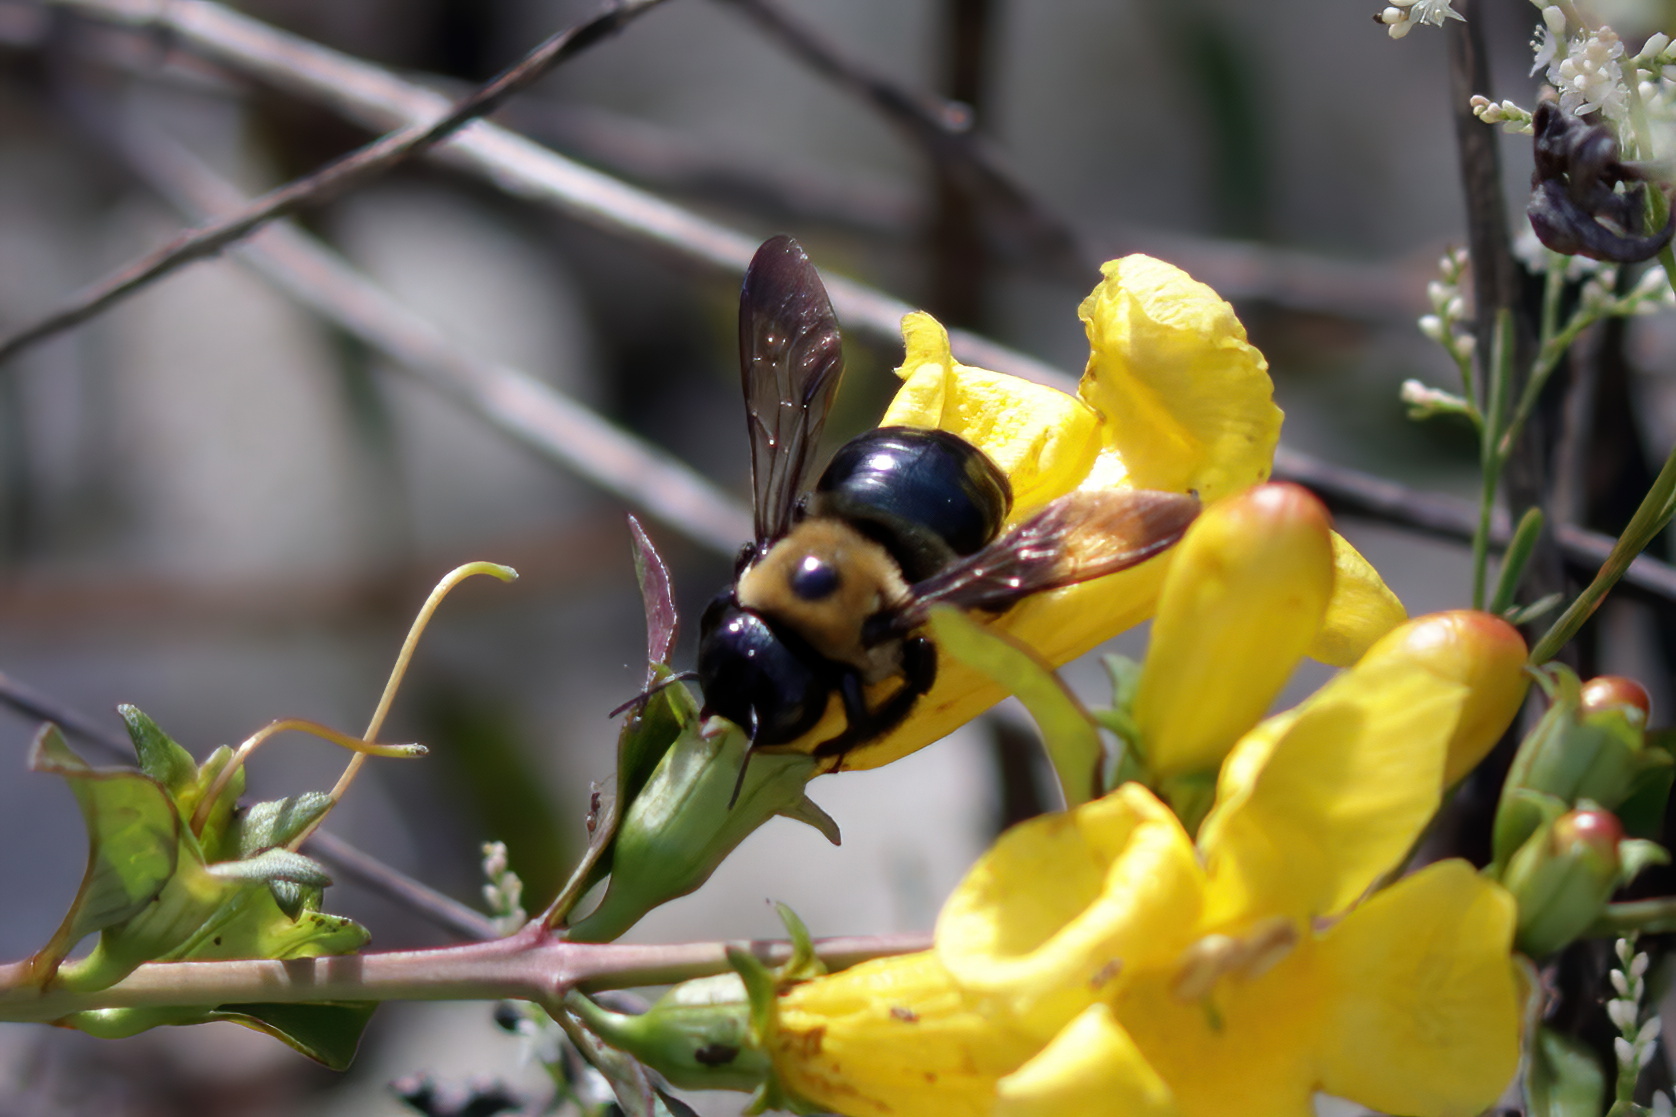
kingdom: Animalia
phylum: Arthropoda
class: Insecta
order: Hymenoptera
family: Apidae
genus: Xylocopa
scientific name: Xylocopa virginica
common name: Carpenter bee
